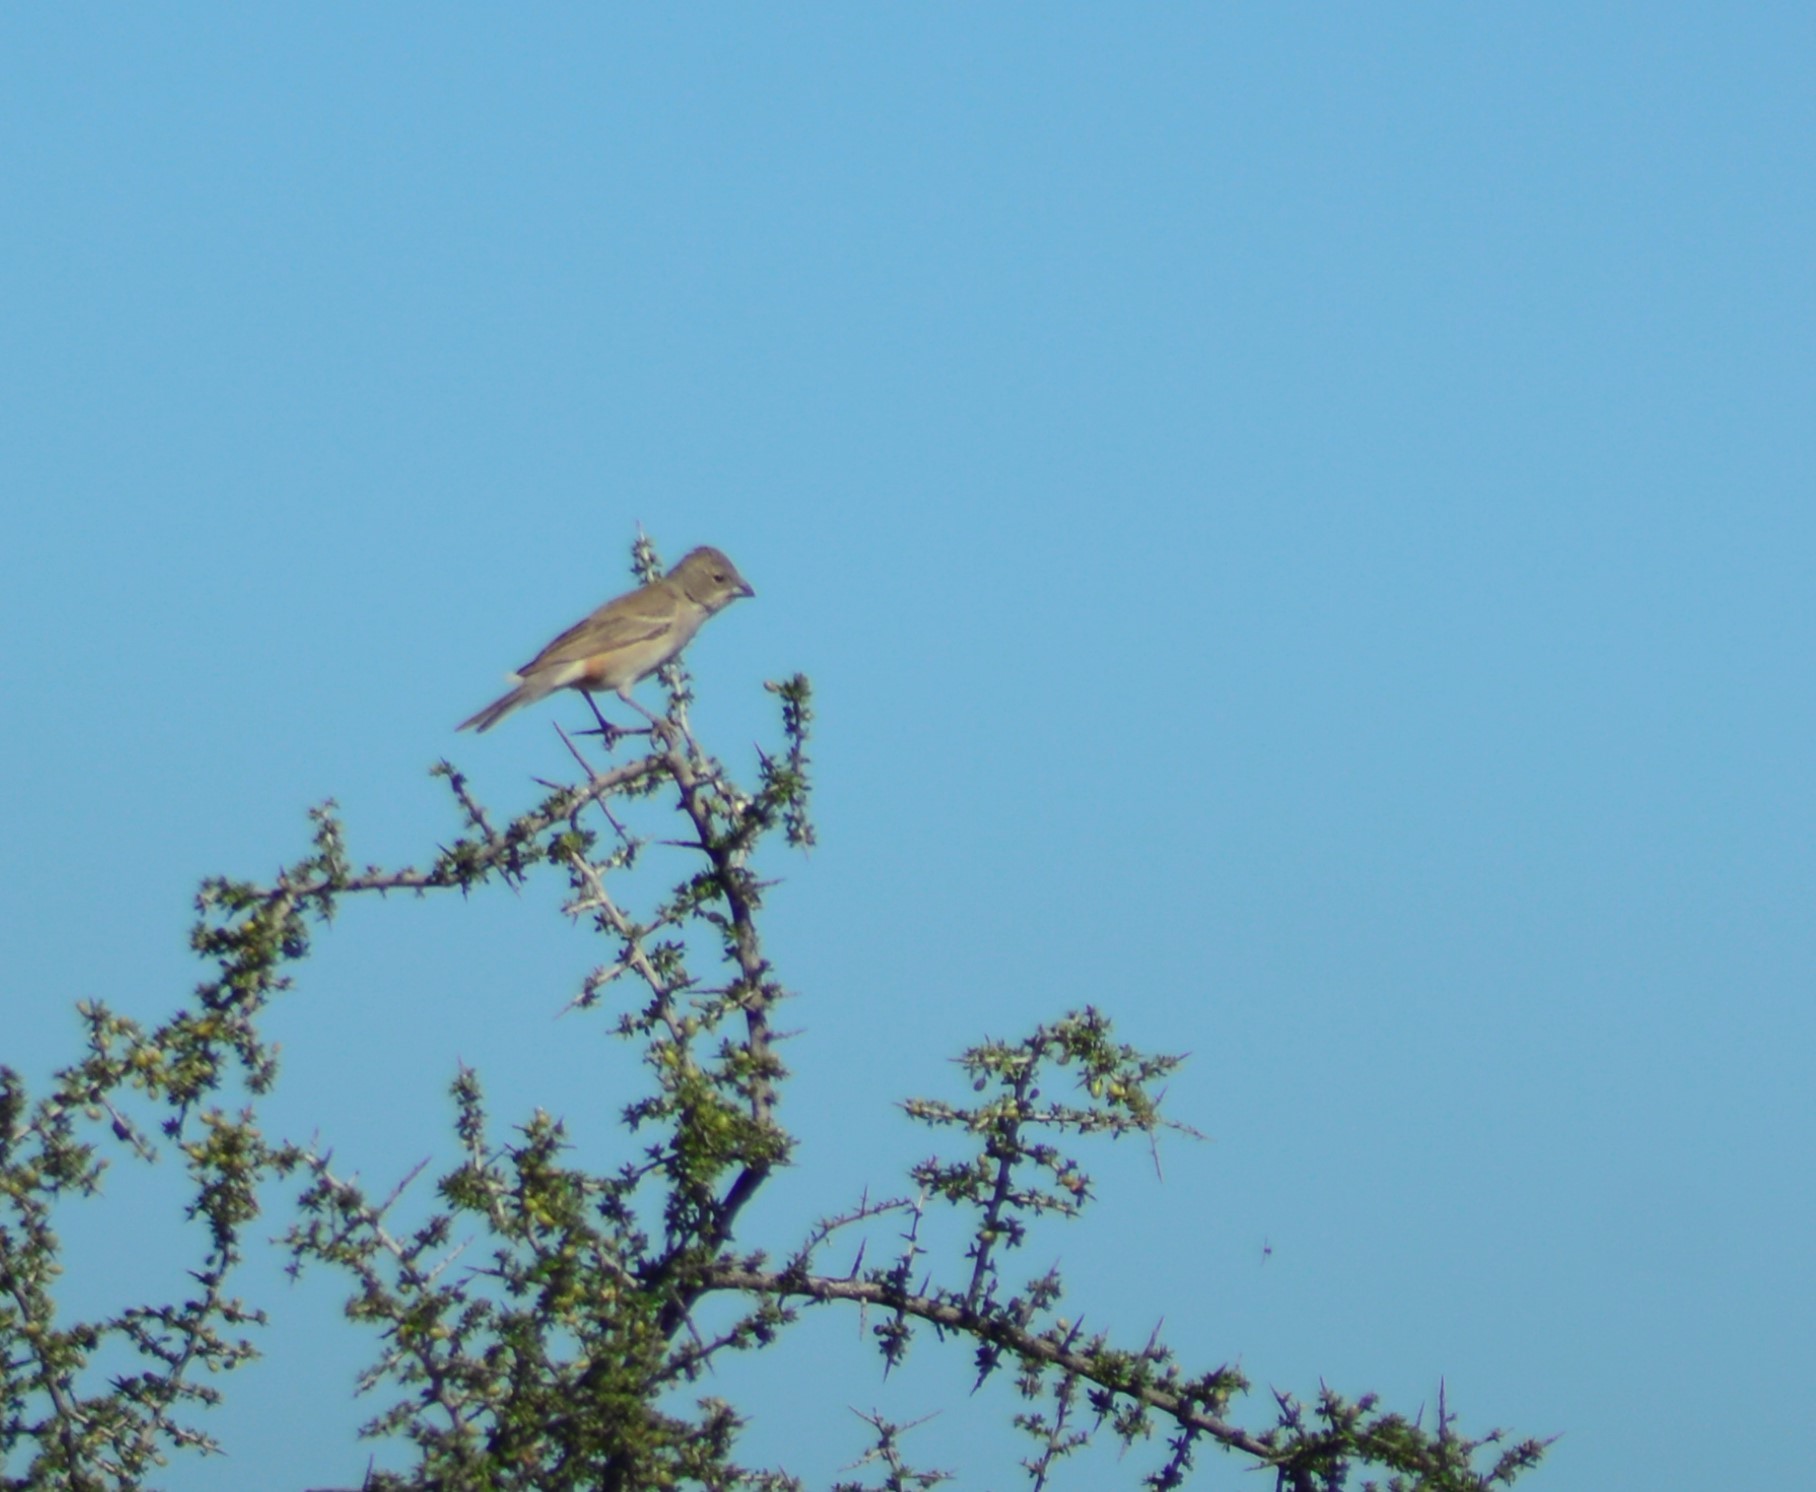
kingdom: Animalia
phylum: Chordata
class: Aves
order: Passeriformes
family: Thraupidae
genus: Diuca
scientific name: Diuca diuca
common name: Common diuca finch
